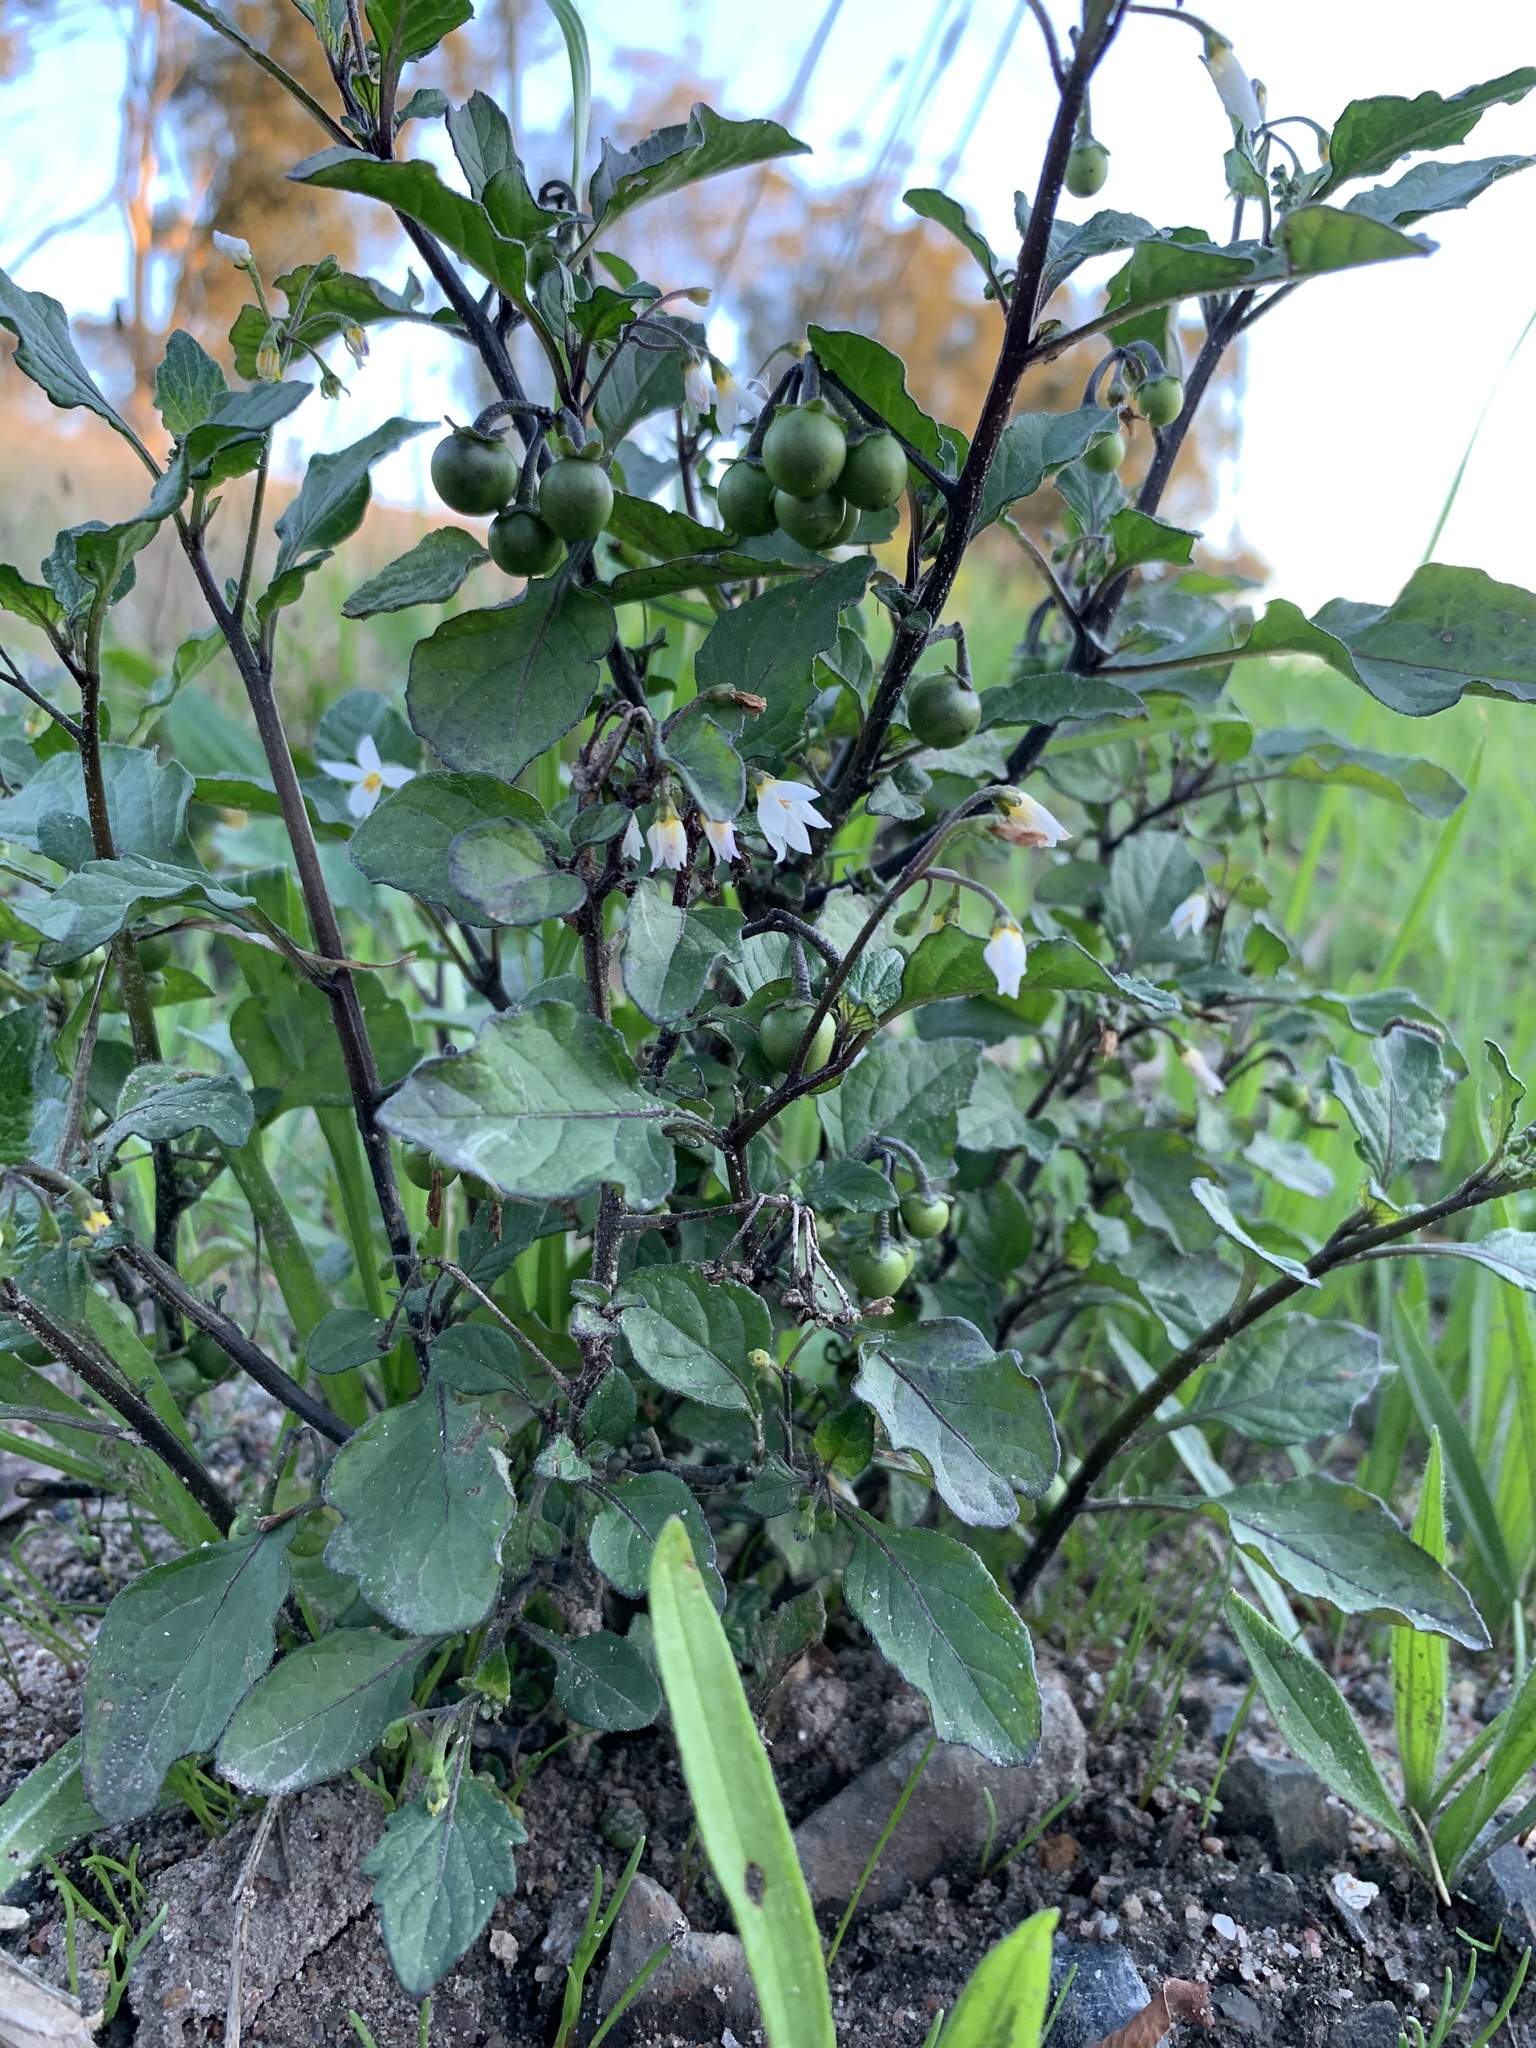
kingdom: Plantae
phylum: Tracheophyta
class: Magnoliopsida
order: Solanales
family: Solanaceae
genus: Solanum
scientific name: Solanum nigrum
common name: Black nightshade
